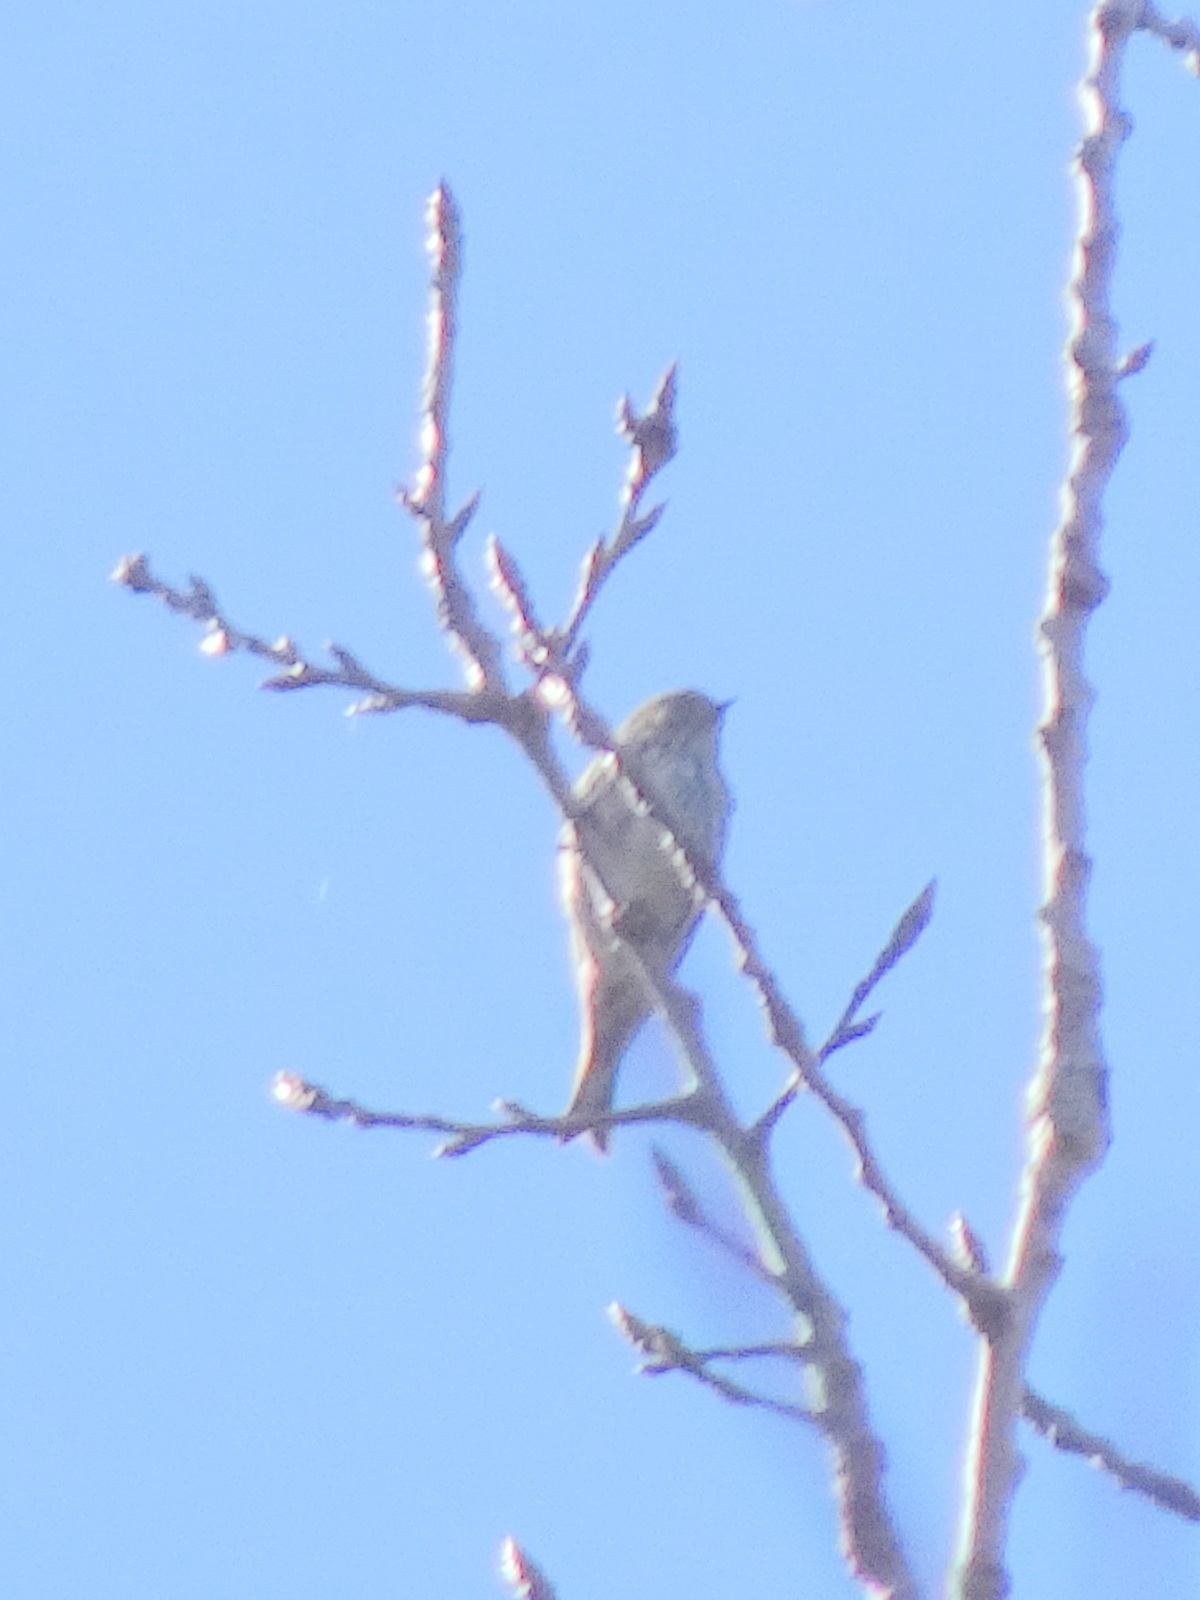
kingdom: Animalia
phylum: Chordata
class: Aves
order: Passeriformes
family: Fringillidae
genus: Spinus
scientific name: Spinus pinus
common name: Pine siskin
